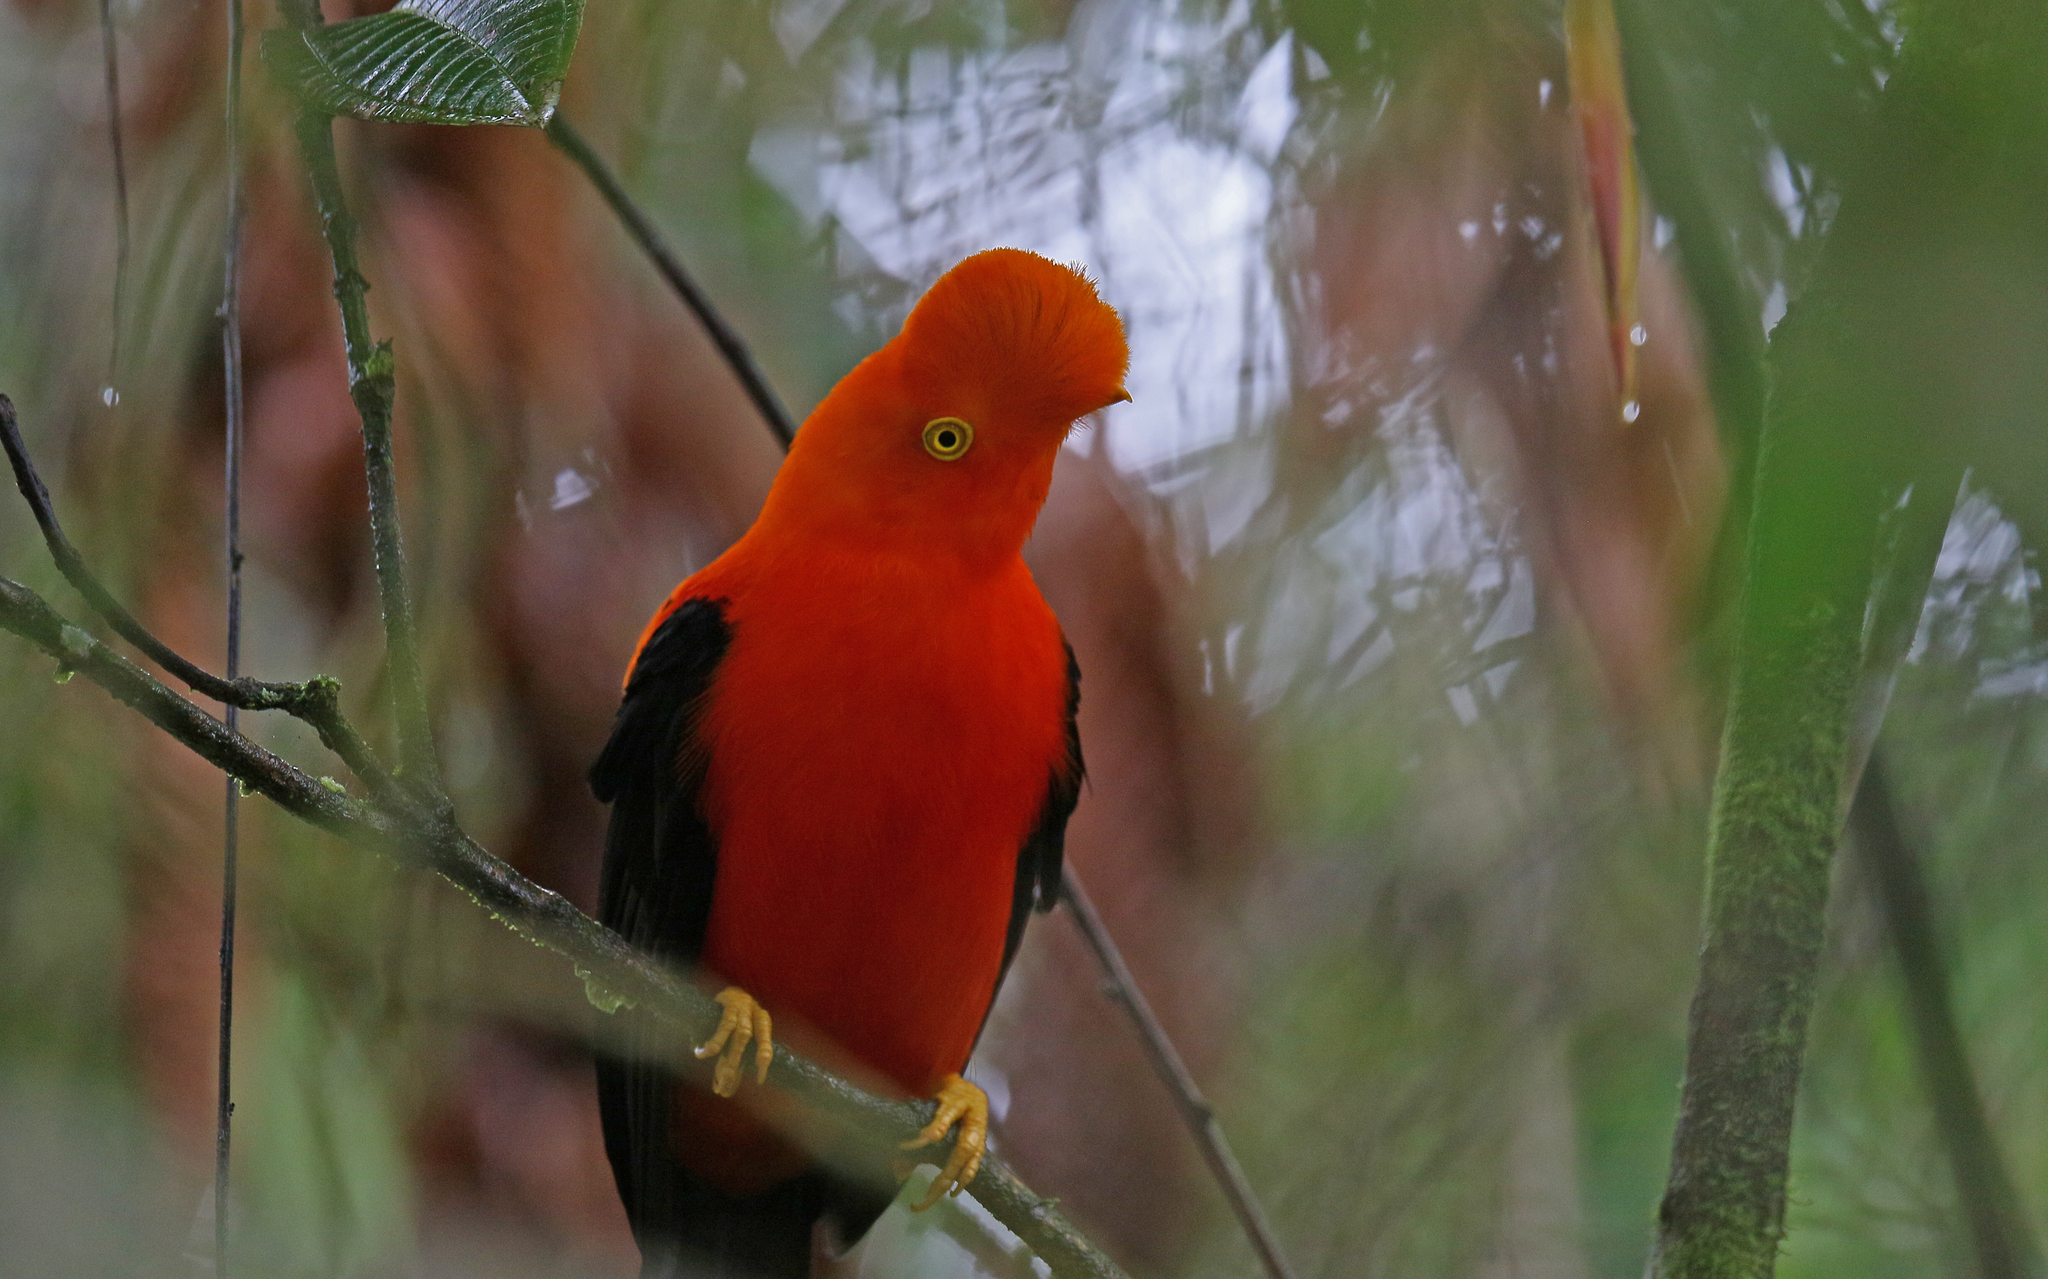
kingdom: Animalia
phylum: Chordata
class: Aves
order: Passeriformes
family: Cotingidae
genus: Rupicola
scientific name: Rupicola peruvianus
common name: Andean cock-of-the-rock
